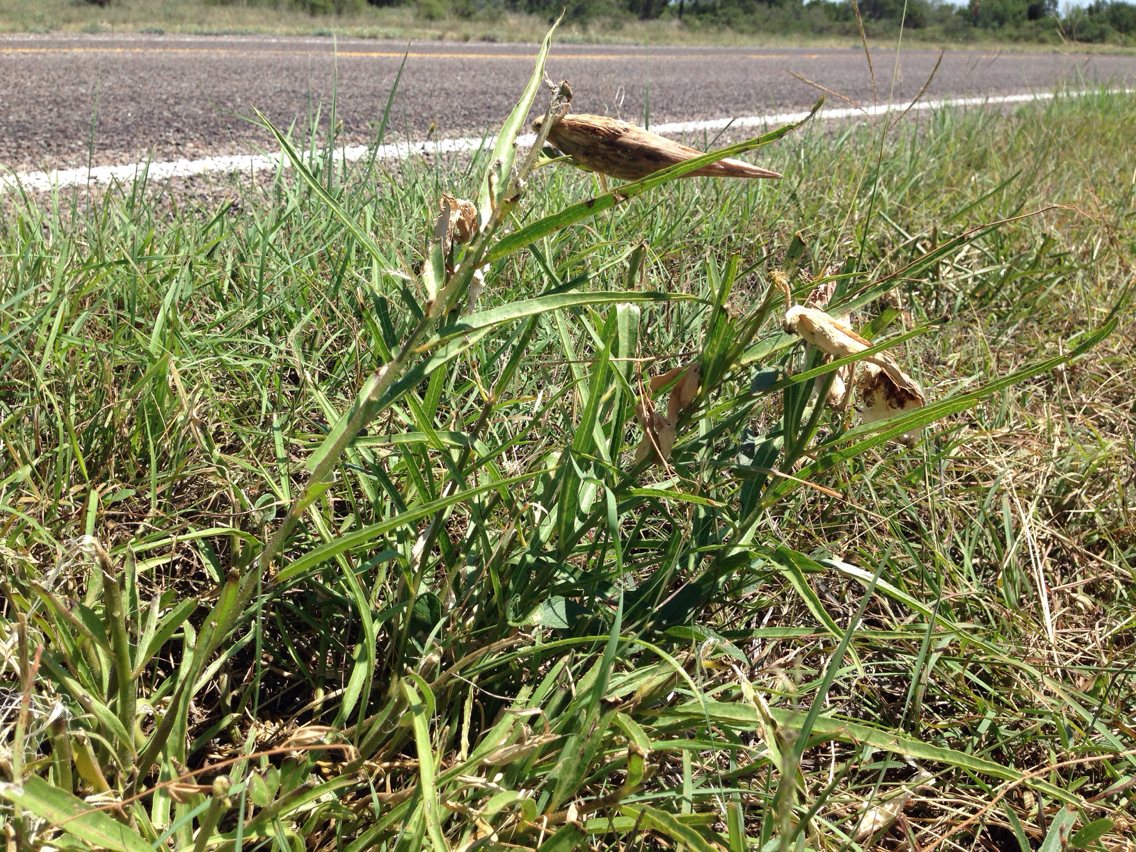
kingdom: Plantae
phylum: Tracheophyta
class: Magnoliopsida
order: Gentianales
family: Apocynaceae
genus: Asclepias
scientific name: Asclepias asperula
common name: Antelope horns
